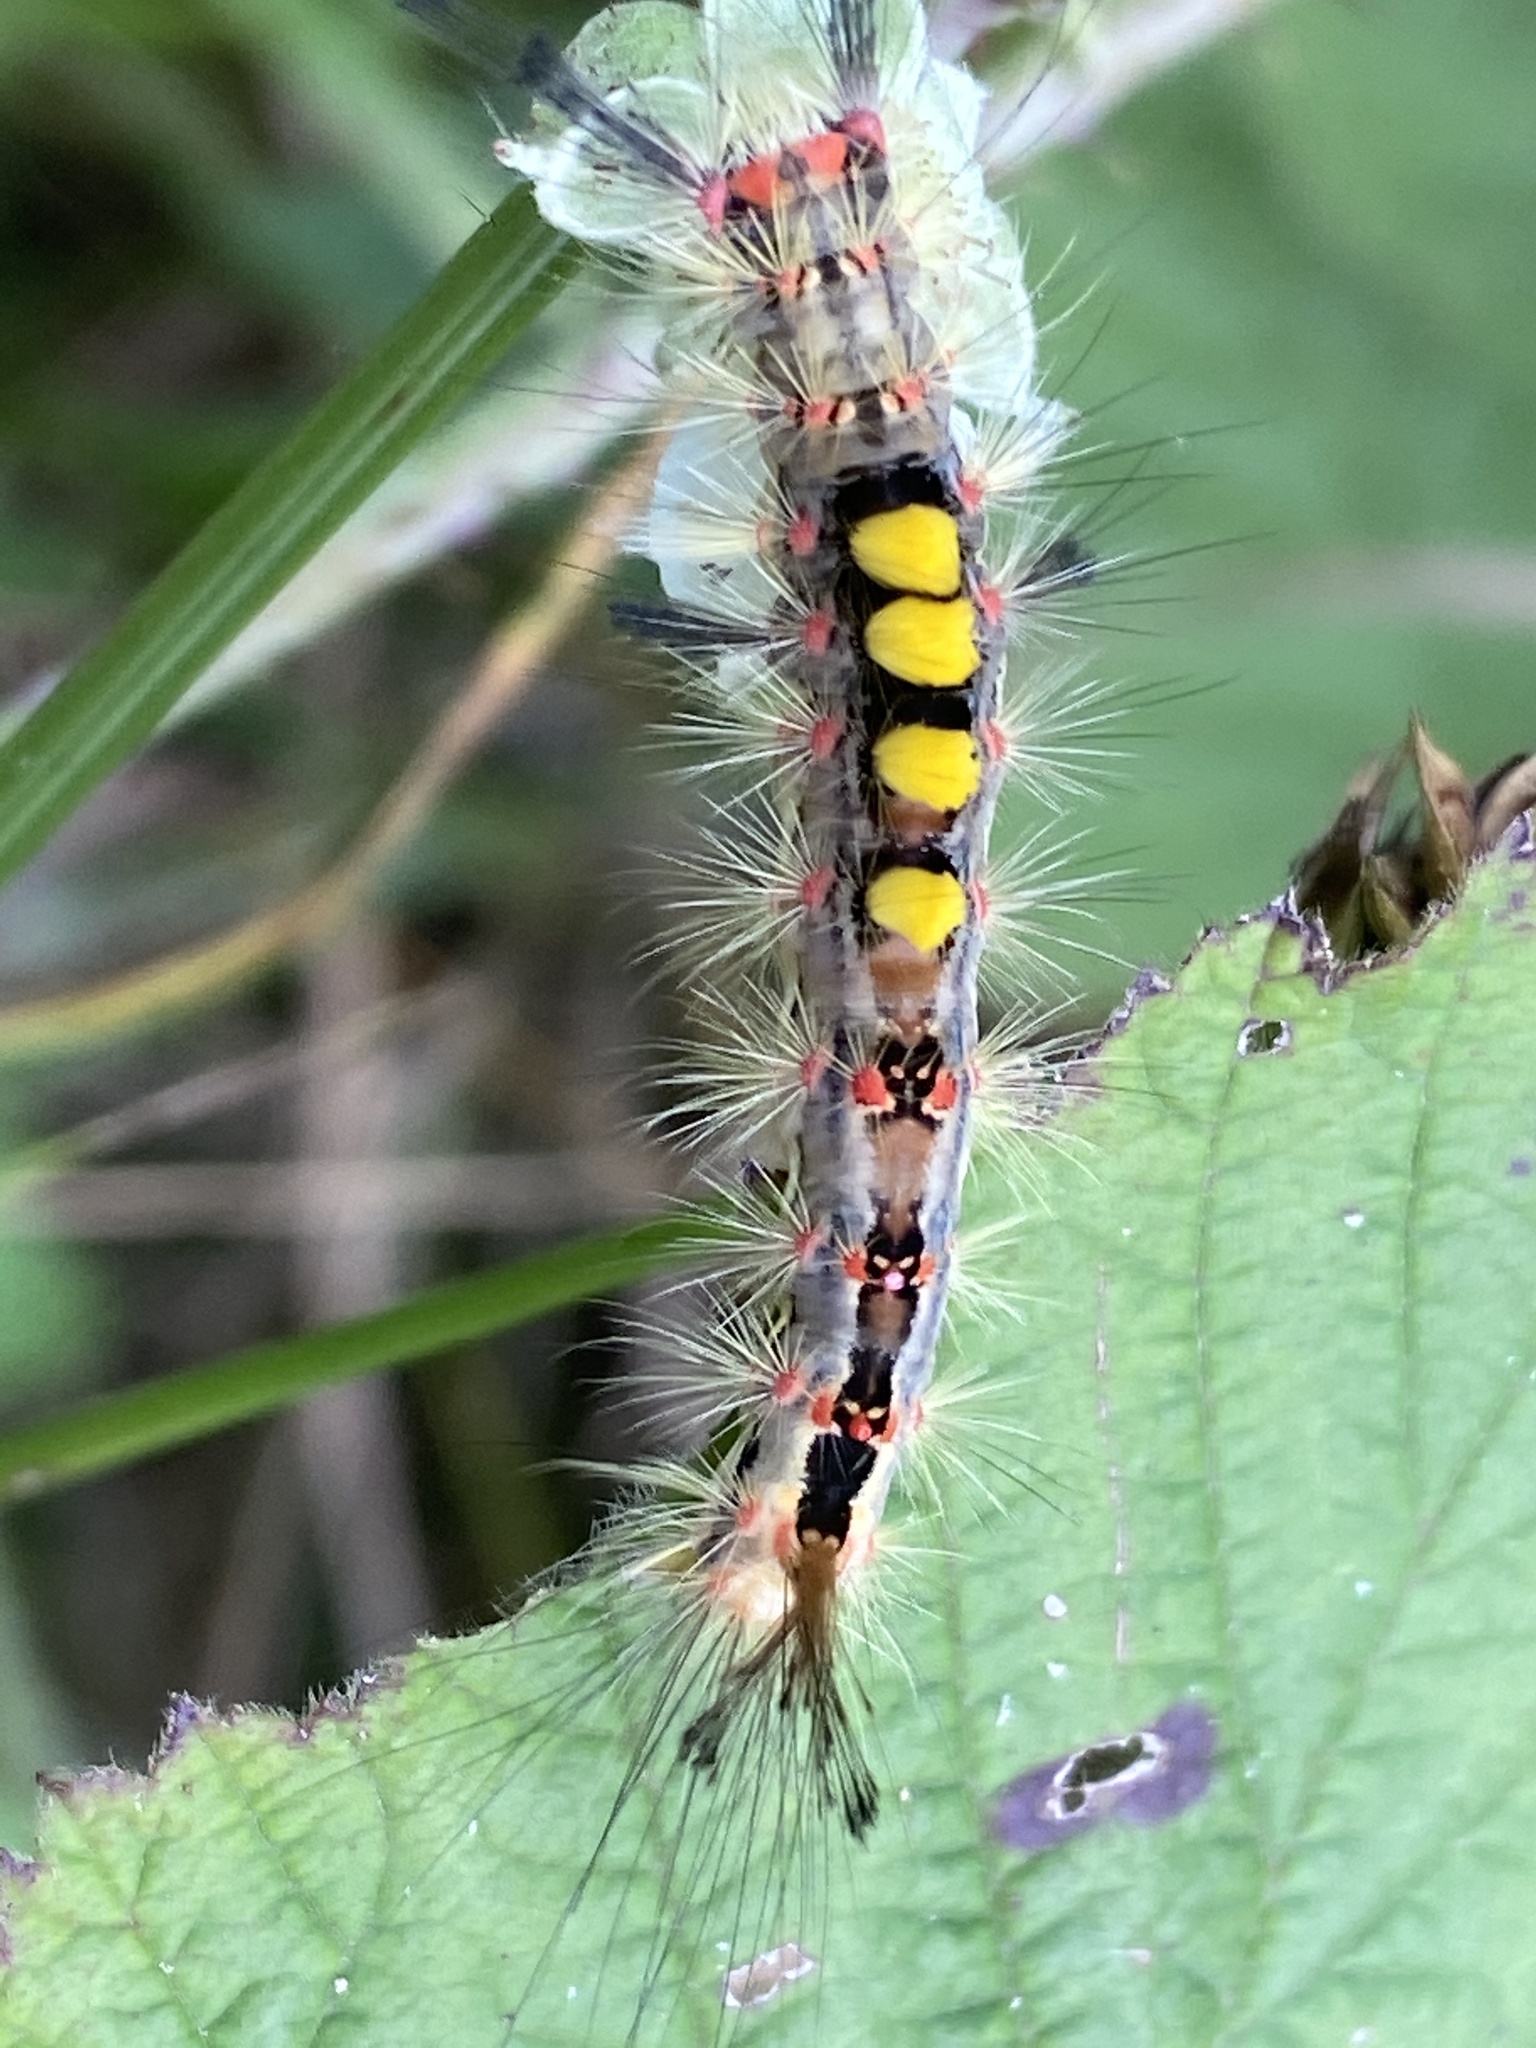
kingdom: Animalia
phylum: Arthropoda
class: Insecta
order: Lepidoptera
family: Erebidae
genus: Orgyia
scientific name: Orgyia antiqua
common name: Vapourer
